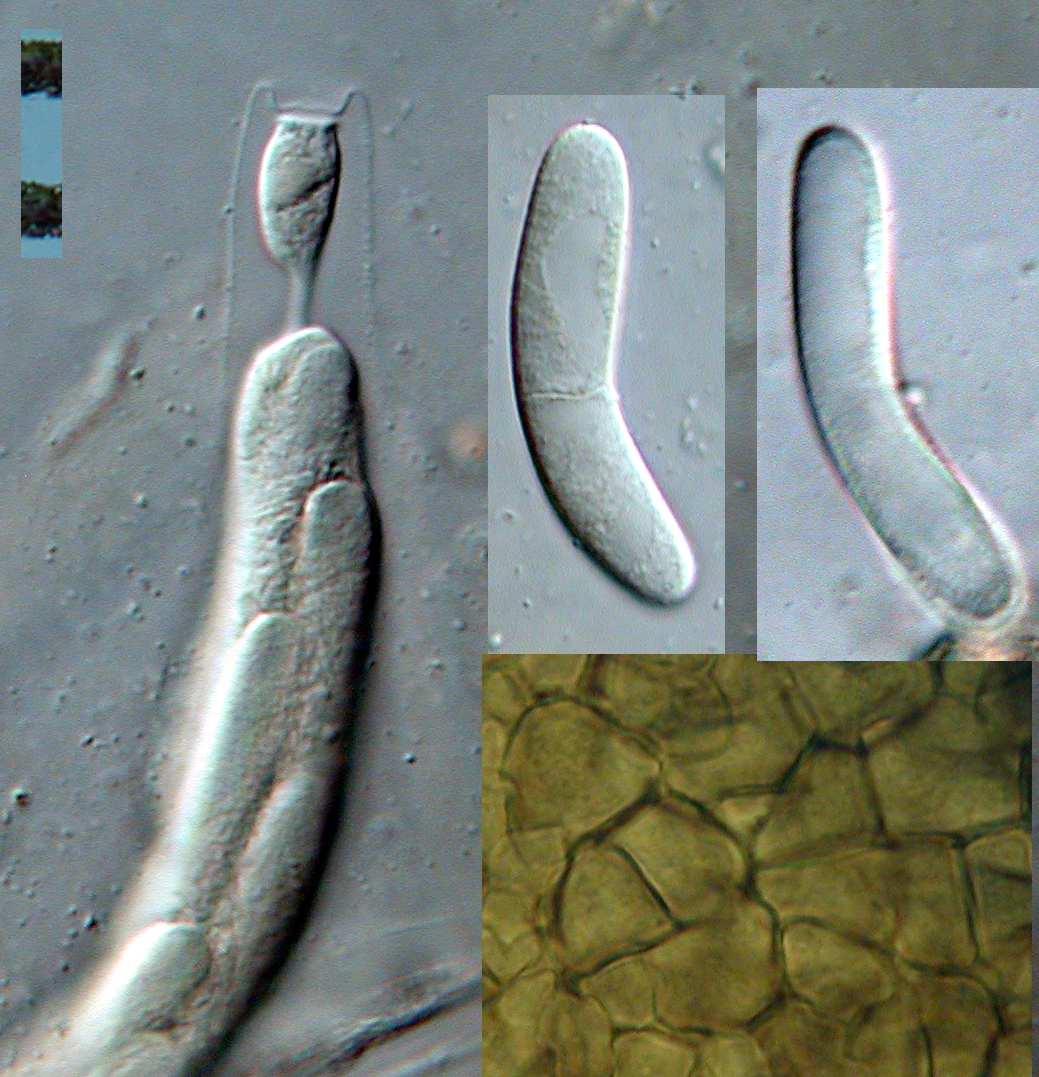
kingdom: Fungi
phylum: Ascomycota
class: Sordariomycetes
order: Sordariales
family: Lasiosphaeriaceae
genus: Lasiosphaeria
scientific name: Lasiosphaeria lanuginosa
